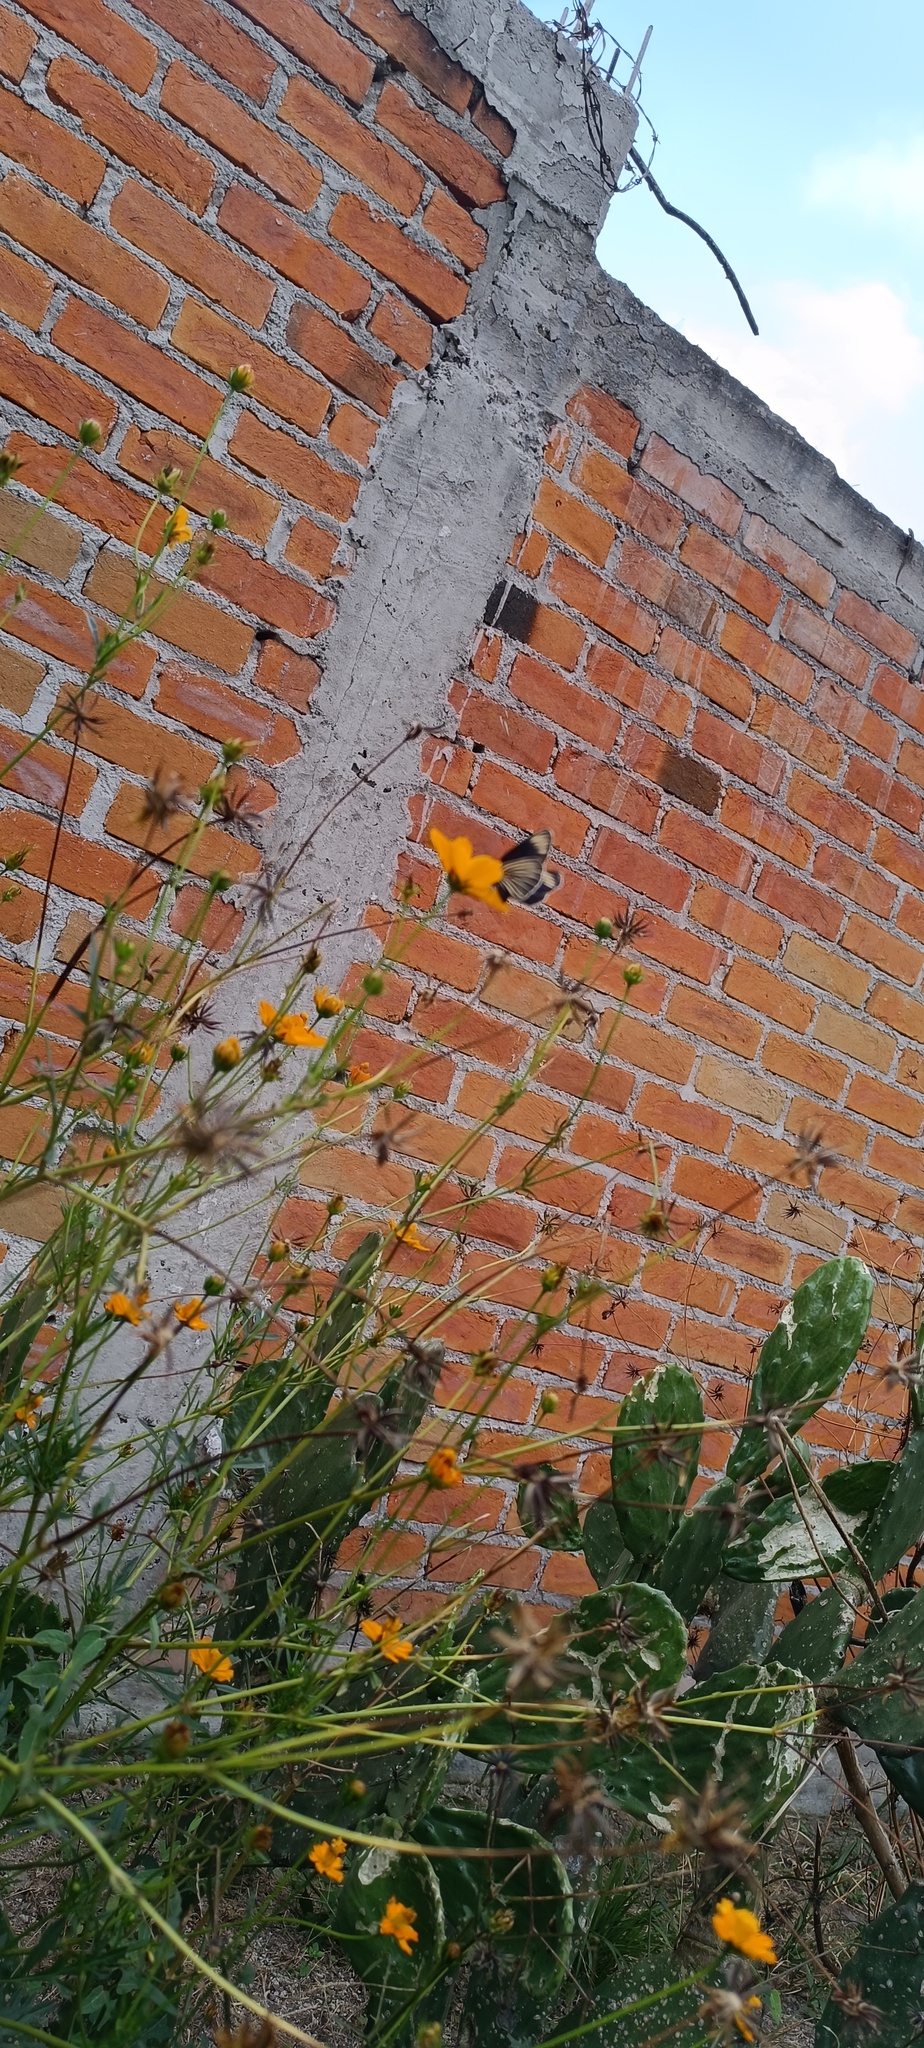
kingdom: Plantae
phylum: Tracheophyta
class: Magnoliopsida
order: Asterales
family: Asteraceae
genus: Cosmos
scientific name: Cosmos sulphureus
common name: Sulphur cosmos
